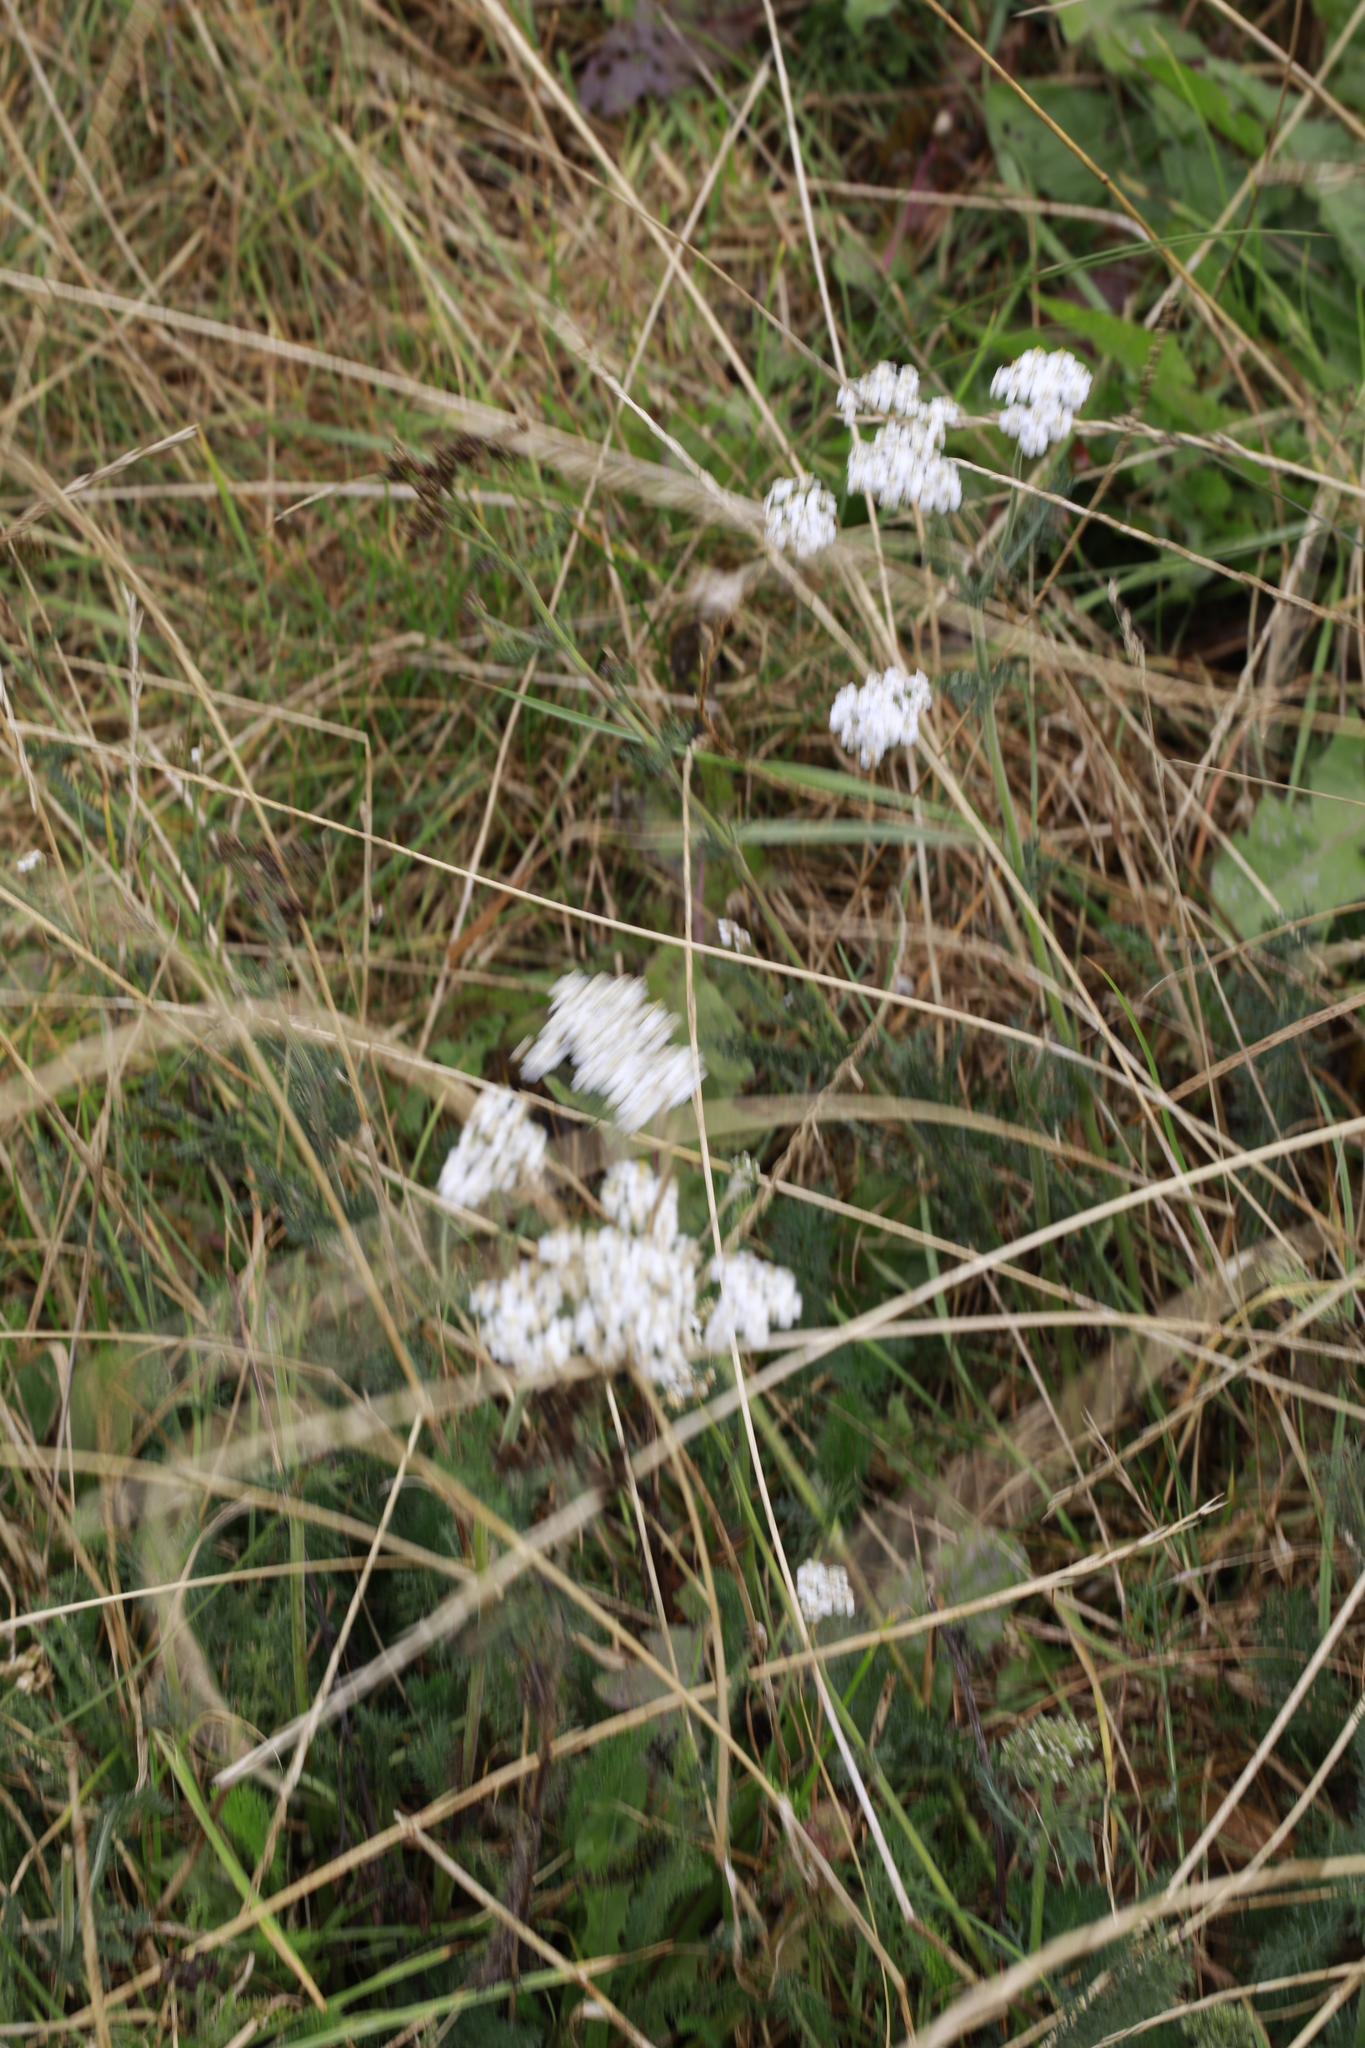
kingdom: Plantae
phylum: Tracheophyta
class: Magnoliopsida
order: Asterales
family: Asteraceae
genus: Achillea
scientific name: Achillea millefolium
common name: Yarrow
